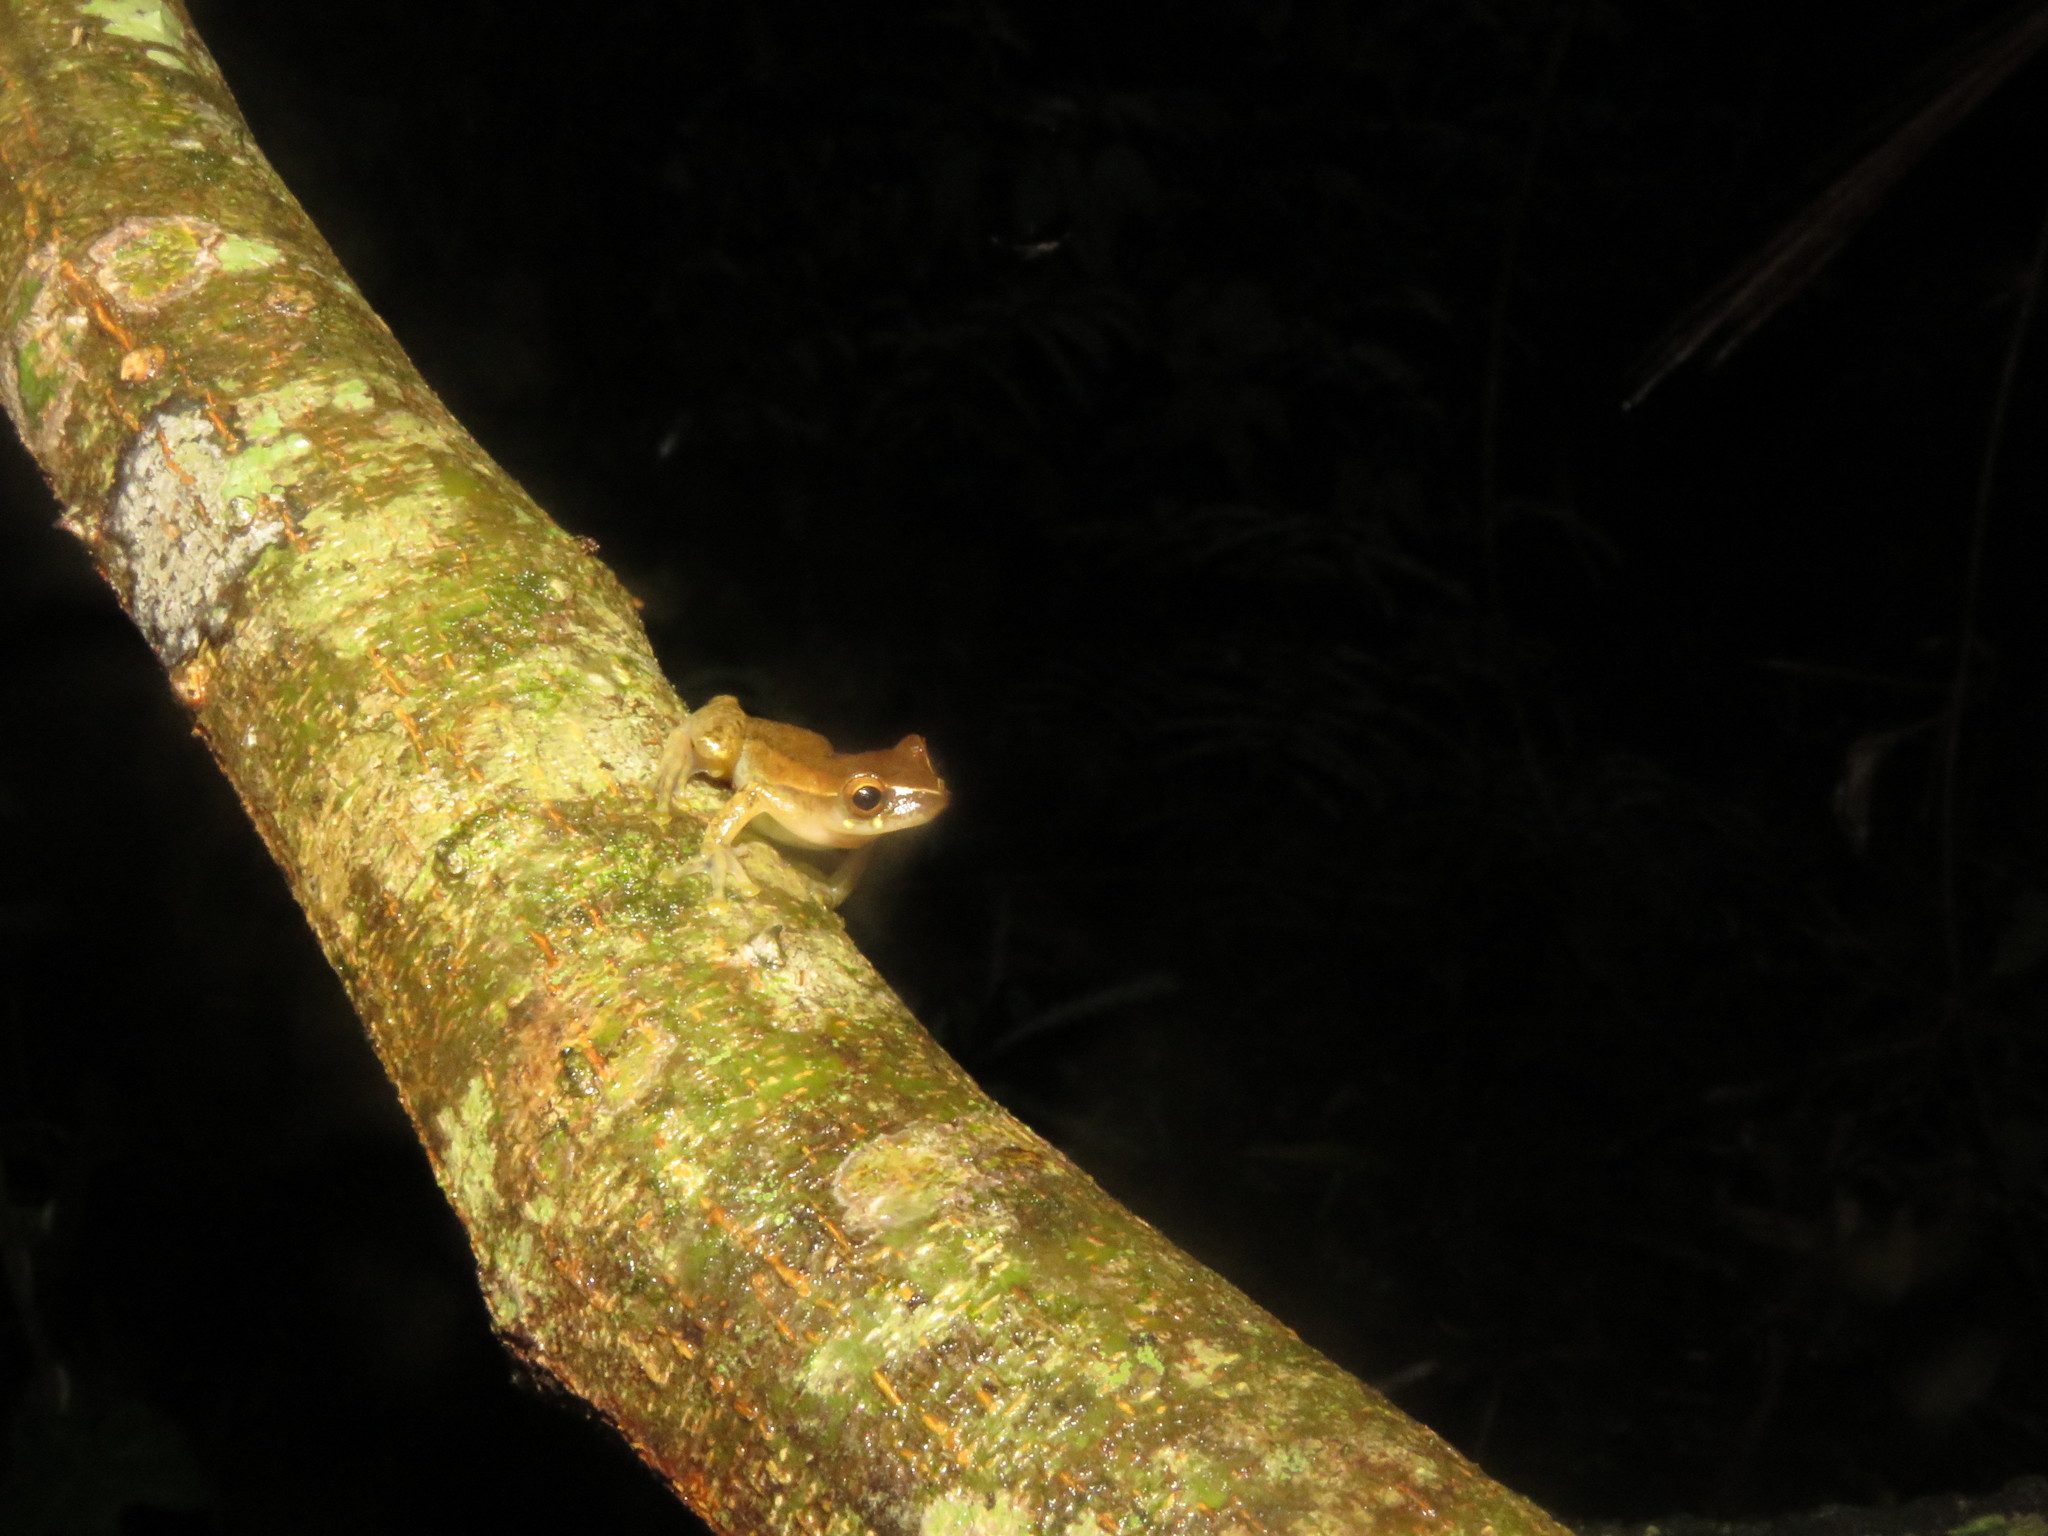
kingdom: Animalia
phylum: Chordata
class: Amphibia
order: Anura
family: Hylidae
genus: Dendropsophus
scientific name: Dendropsophus schubarti
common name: Schubart's rondonia treefrog
